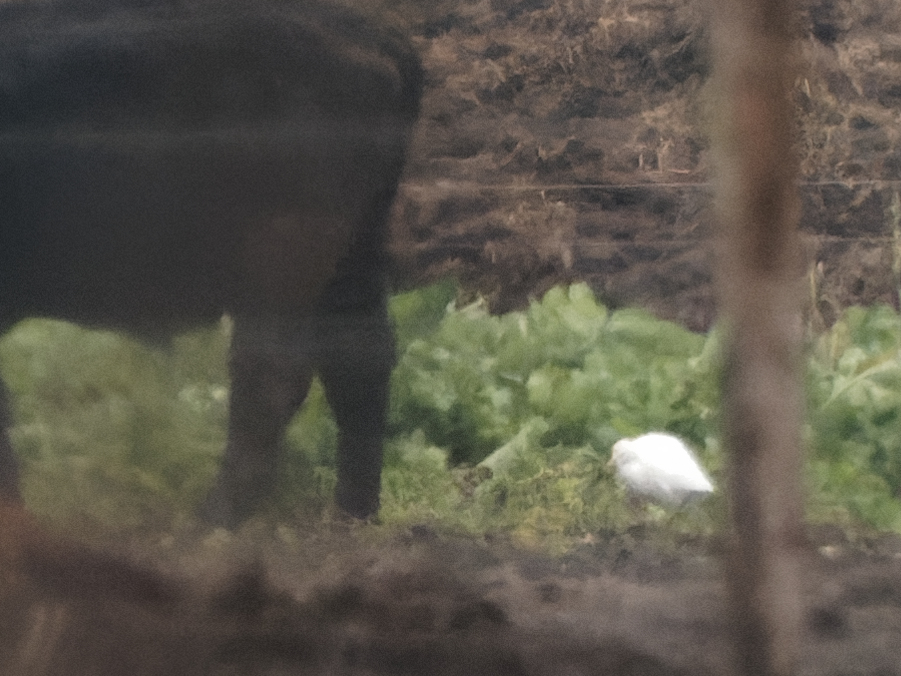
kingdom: Animalia
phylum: Chordata
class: Aves
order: Pelecaniformes
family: Ardeidae
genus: Bubulcus
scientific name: Bubulcus ibis
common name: Cattle egret
